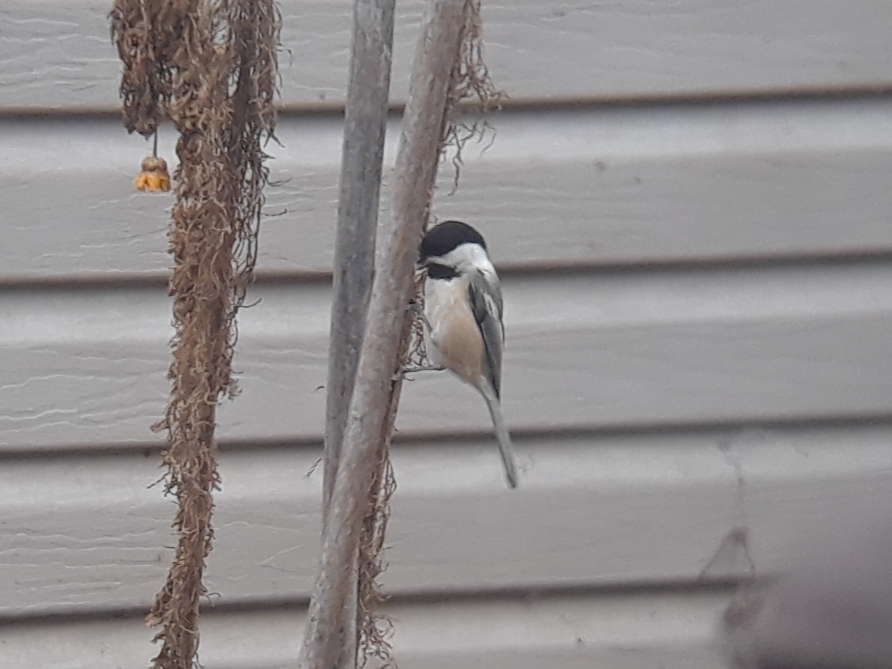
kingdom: Animalia
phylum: Chordata
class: Aves
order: Passeriformes
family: Paridae
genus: Poecile
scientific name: Poecile atricapillus
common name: Black-capped chickadee
